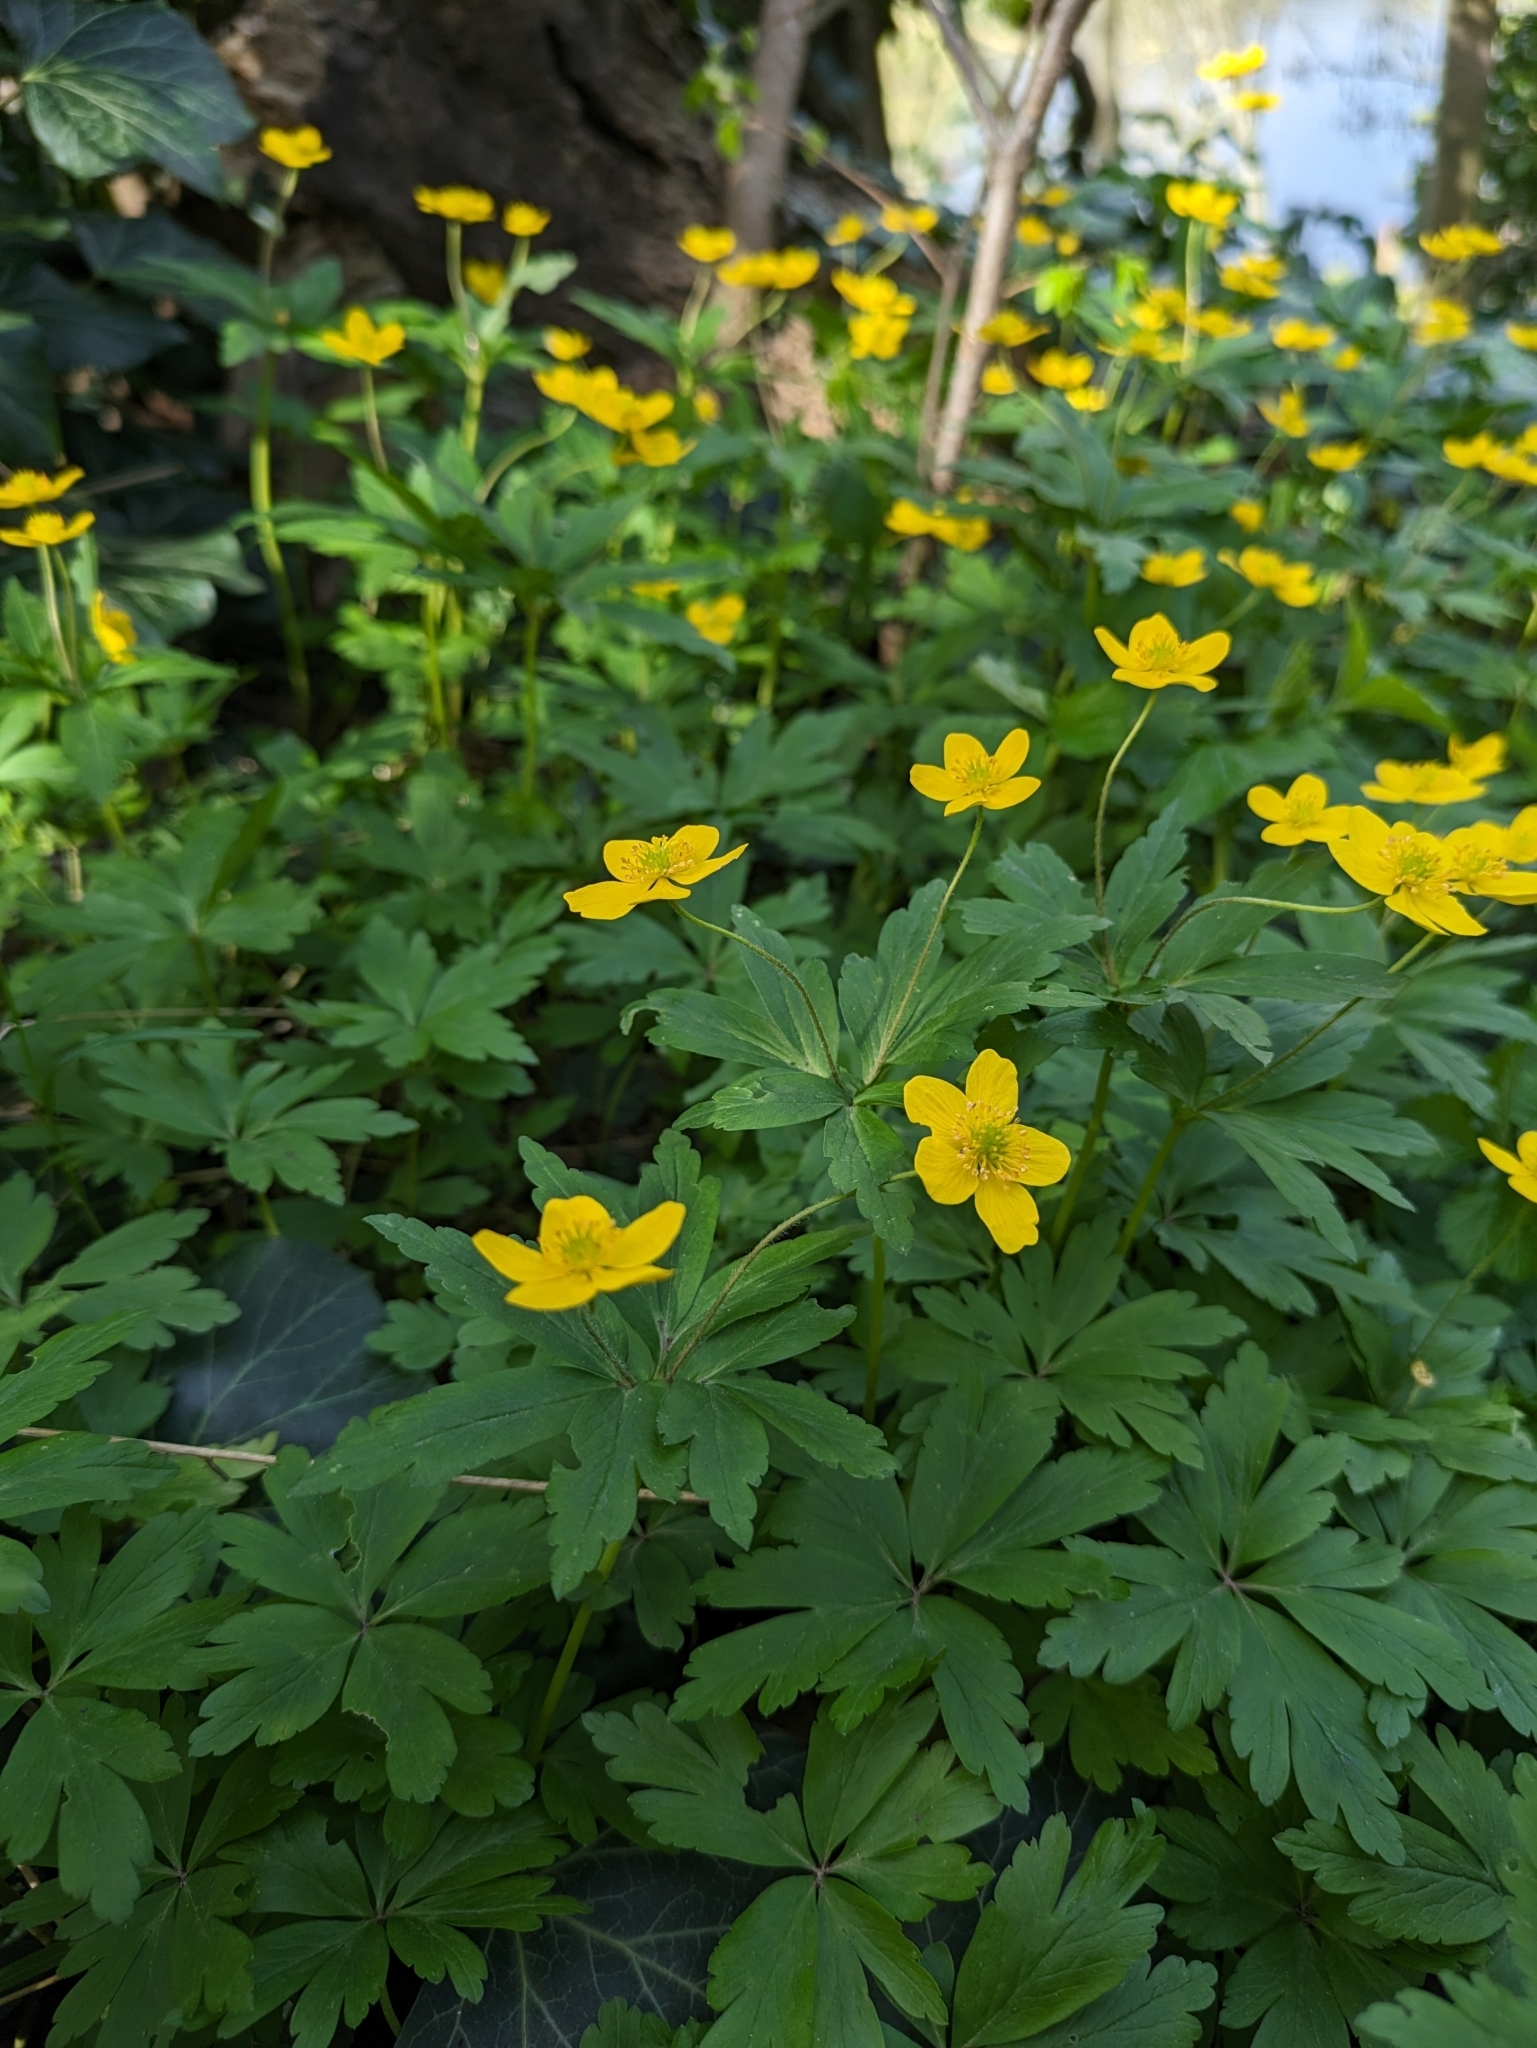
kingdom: Plantae
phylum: Tracheophyta
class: Magnoliopsida
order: Ranunculales
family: Ranunculaceae
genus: Anemone
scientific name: Anemone ranunculoides
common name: Yellow anemone
